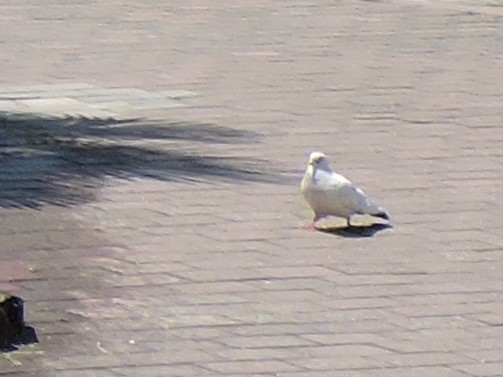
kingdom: Animalia
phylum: Chordata
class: Aves
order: Columbiformes
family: Columbidae
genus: Columba
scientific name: Columba livia
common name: Rock pigeon
